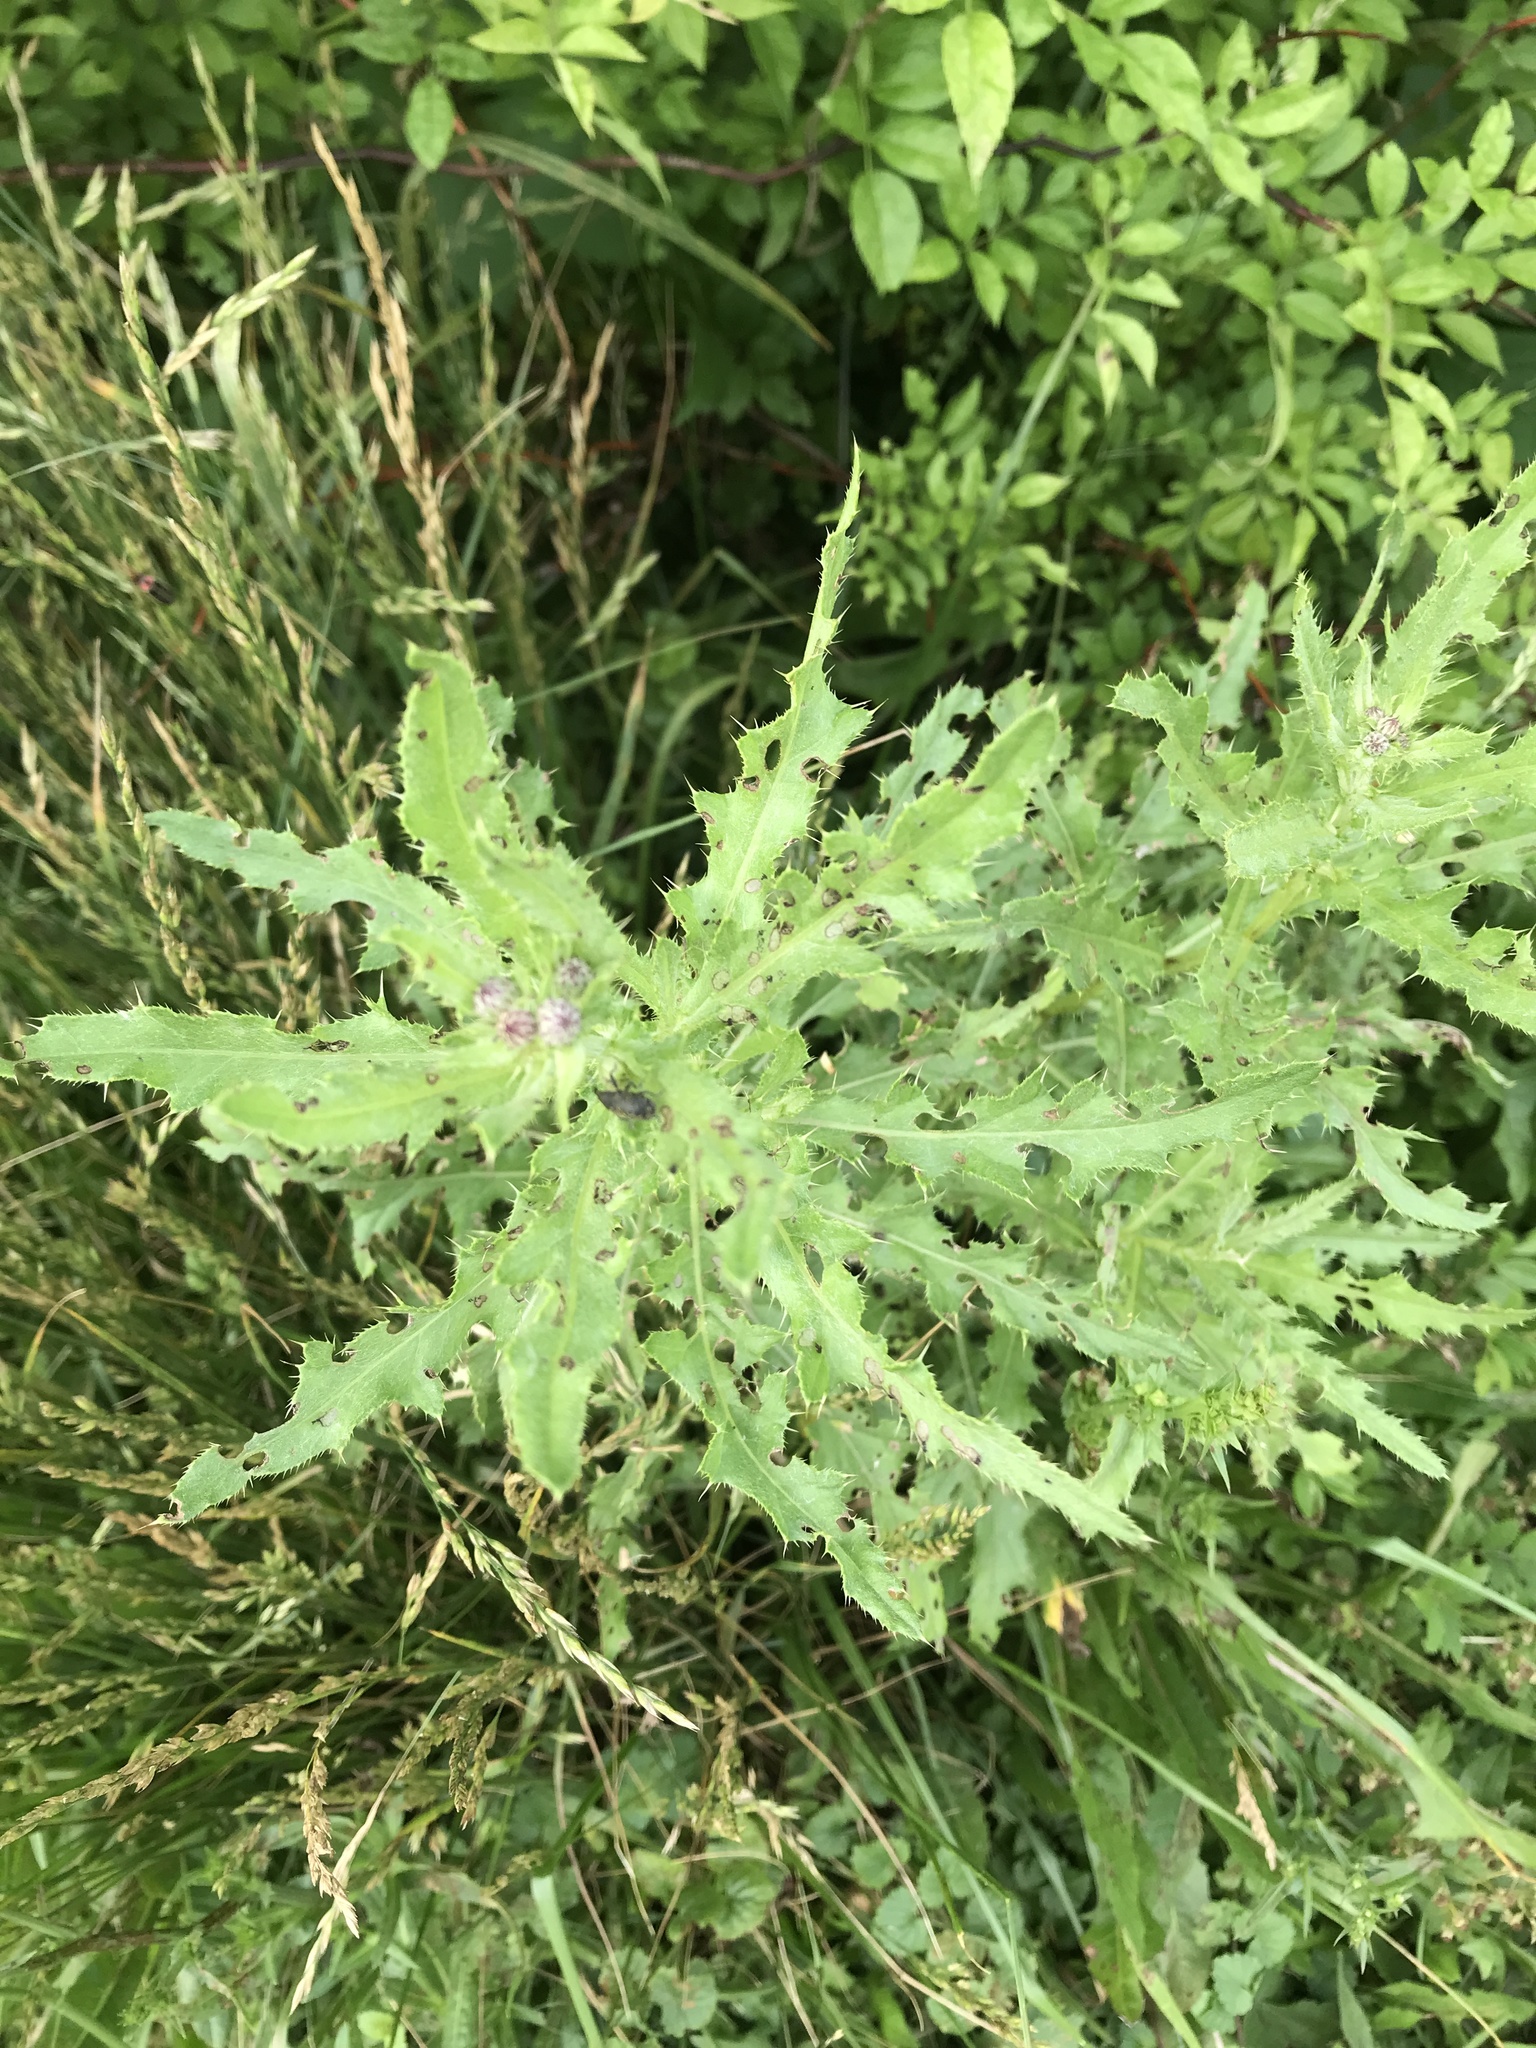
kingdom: Plantae
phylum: Tracheophyta
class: Magnoliopsida
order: Asterales
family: Asteraceae
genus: Cirsium
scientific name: Cirsium arvense
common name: Creeping thistle
